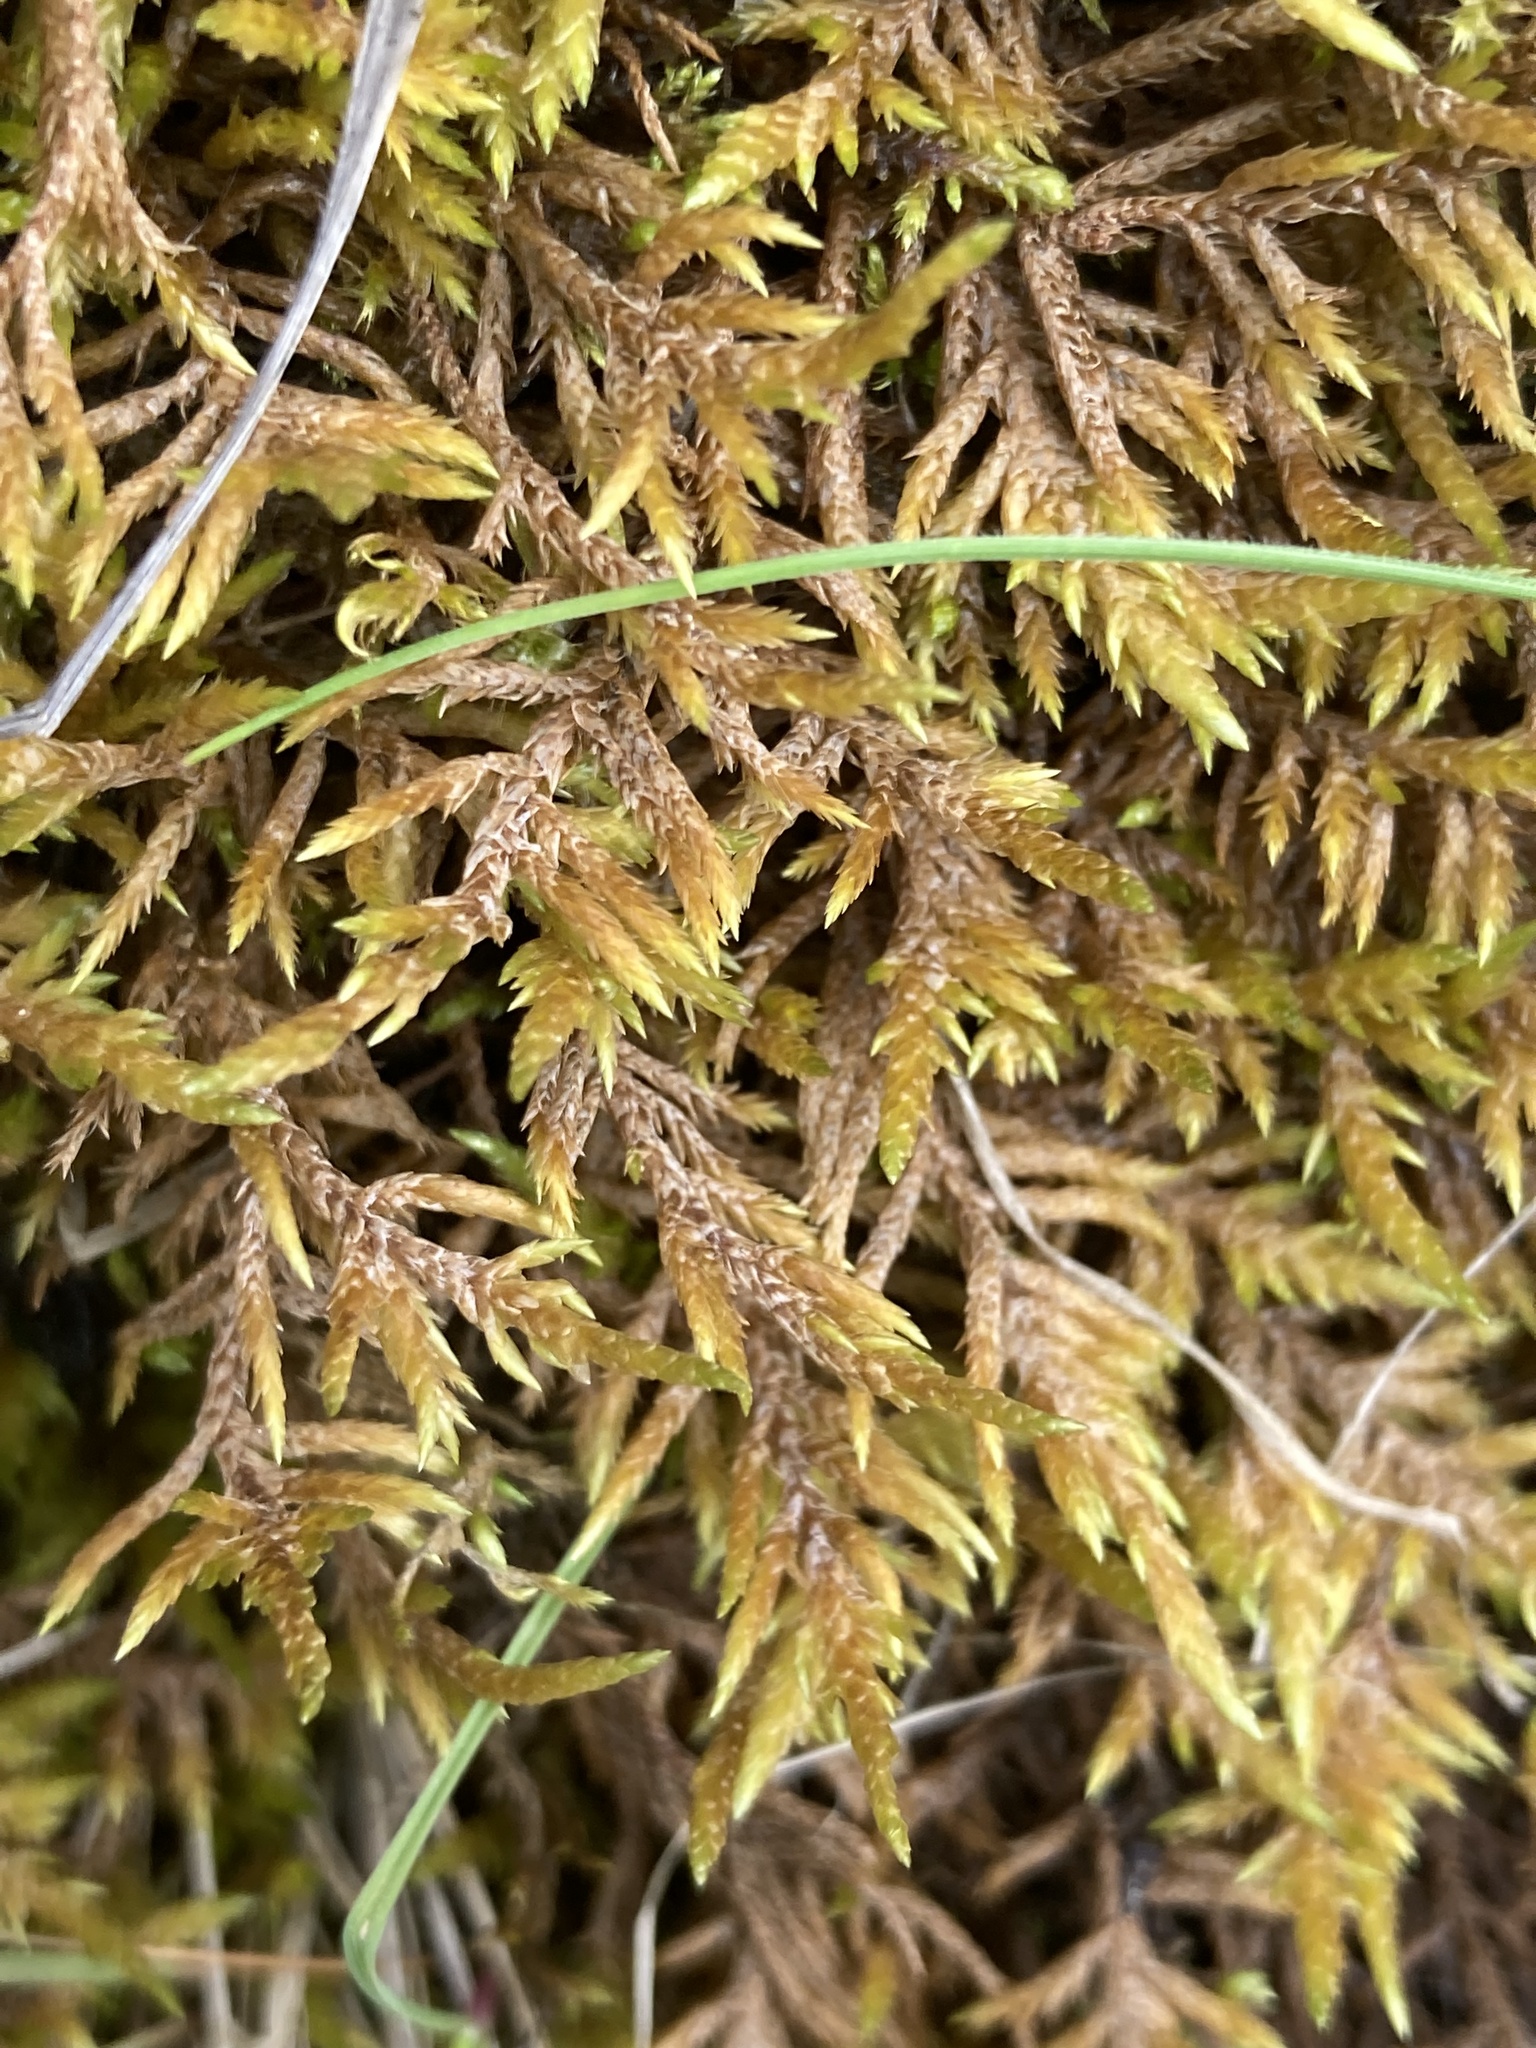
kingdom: Plantae
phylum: Bryophyta
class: Bryopsida
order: Hypnales
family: Entodontaceae
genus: Entodon
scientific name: Entodon concinnus
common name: Montagne's cylinder-moss
